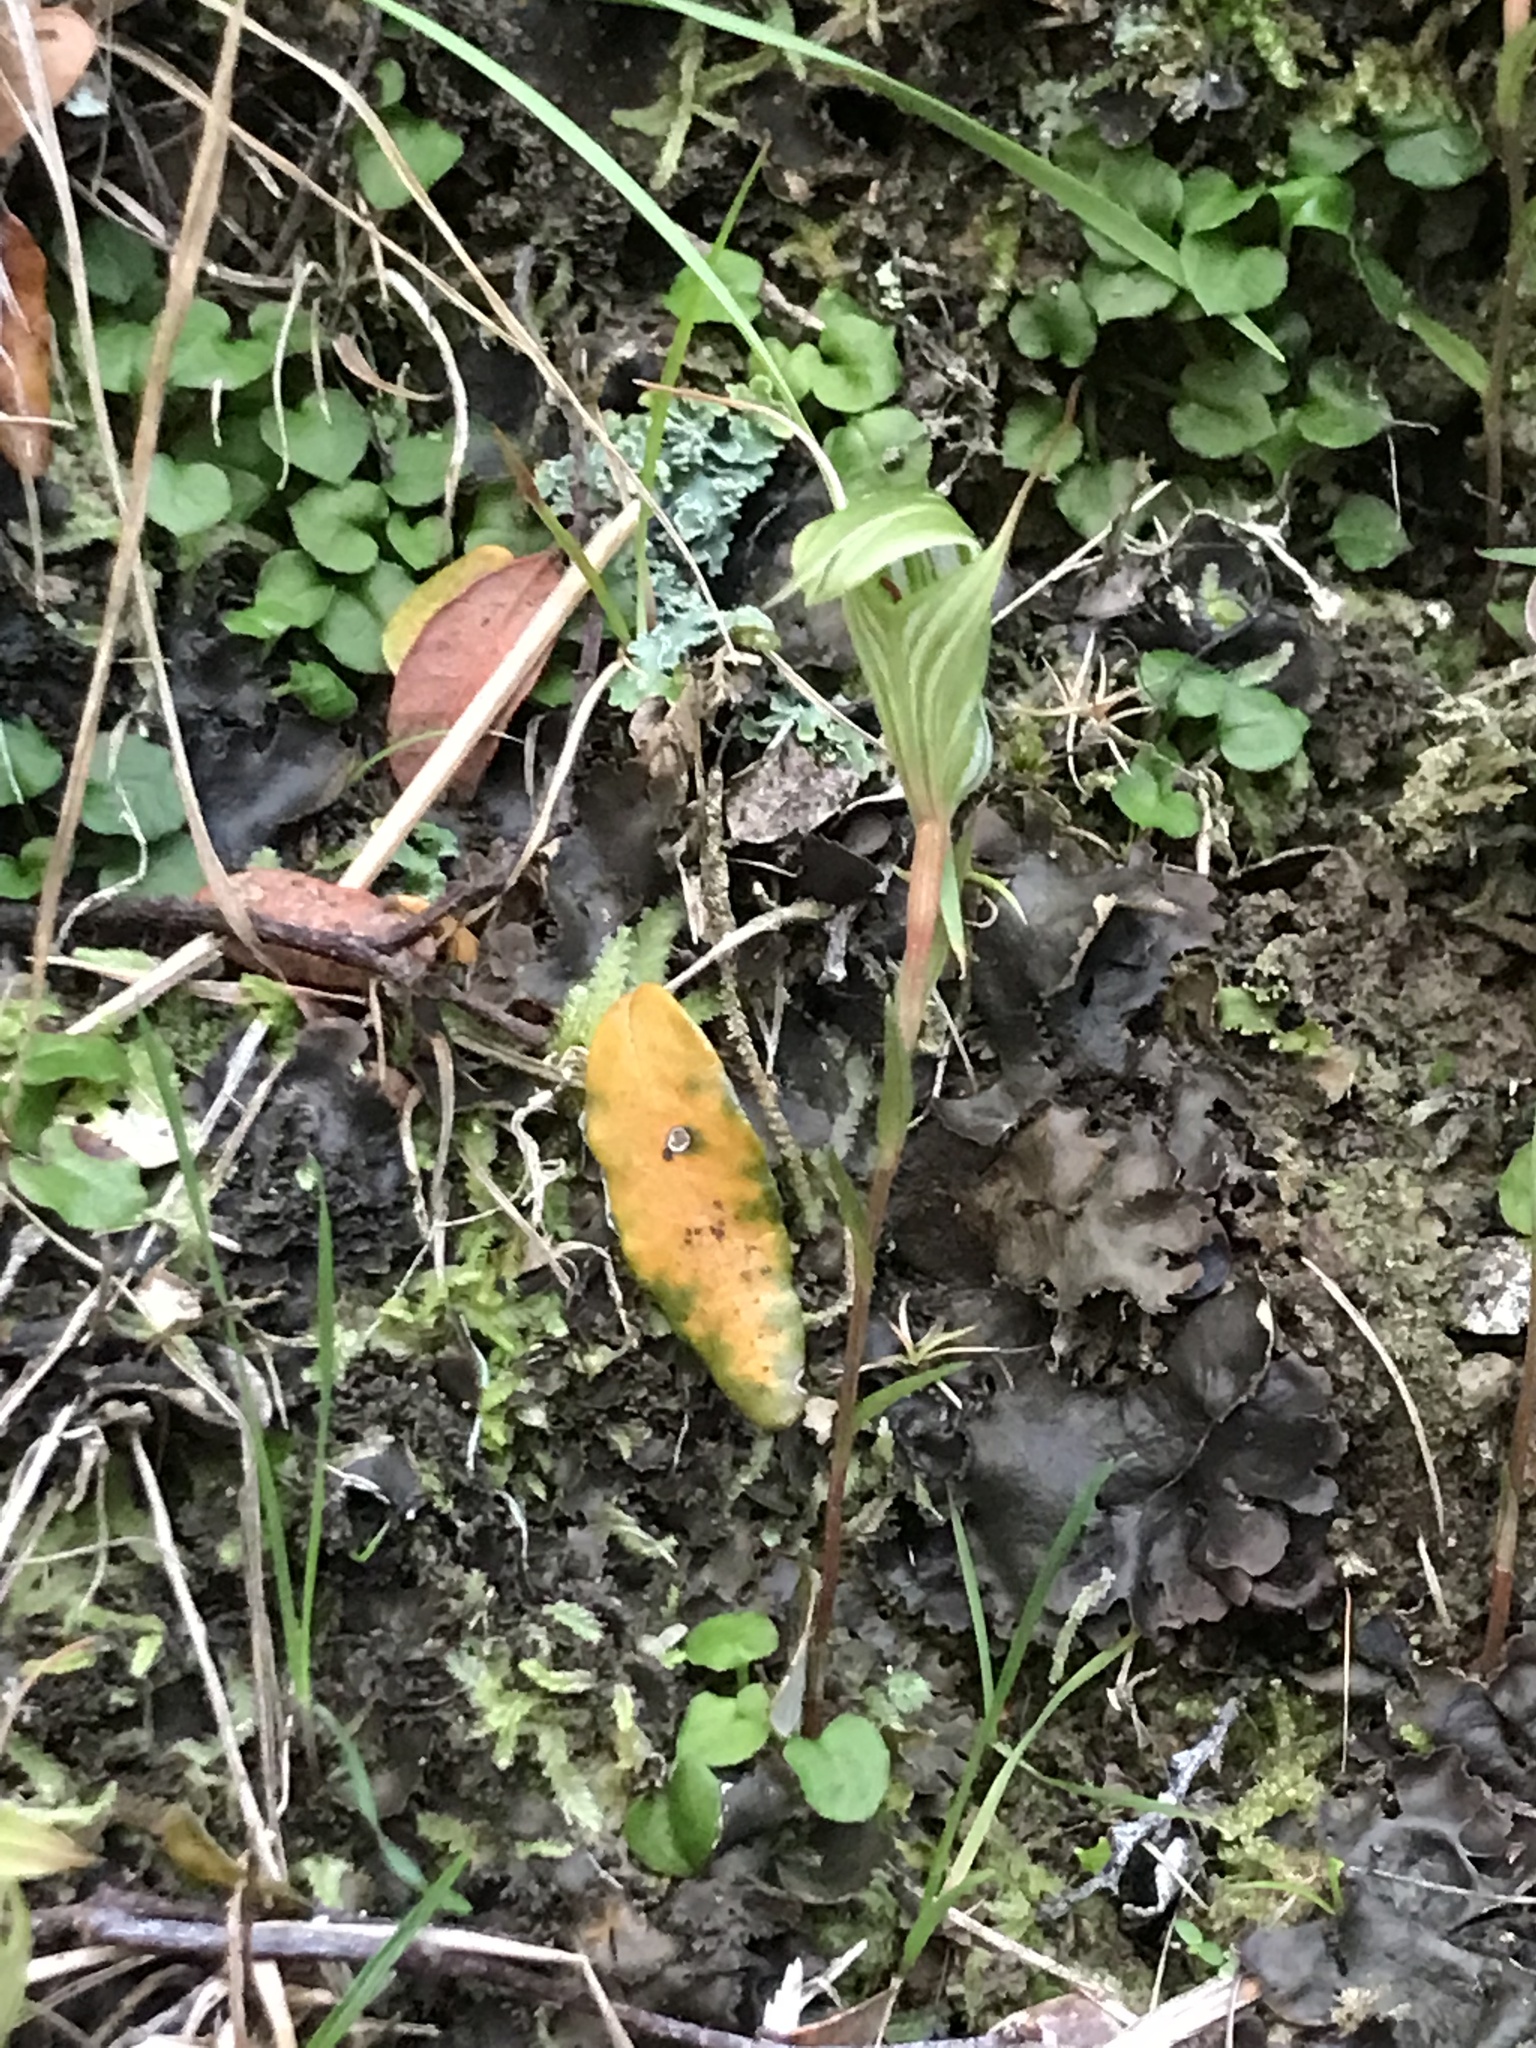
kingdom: Plantae
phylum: Tracheophyta
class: Liliopsida
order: Asparagales
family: Orchidaceae
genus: Pterostylis
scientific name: Pterostylis alobula
